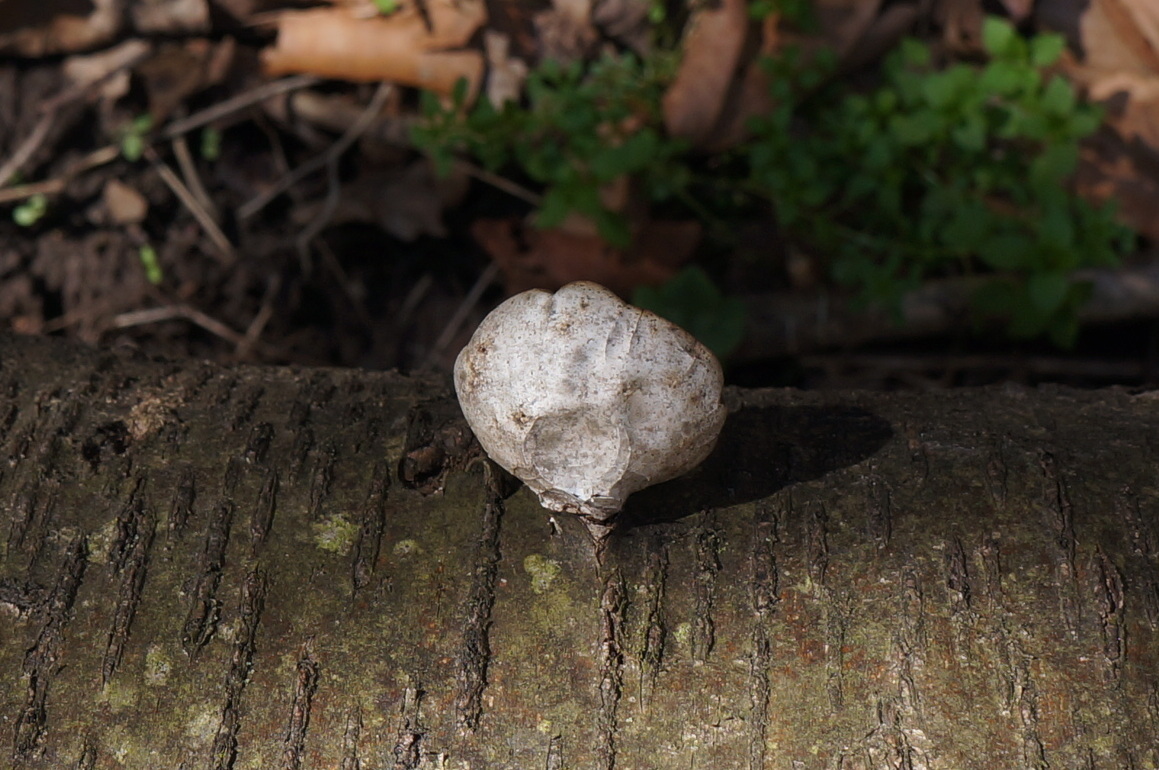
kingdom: Fungi
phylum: Basidiomycota
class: Agaricomycetes
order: Polyporales
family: Fomitopsidaceae
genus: Fomitopsis
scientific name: Fomitopsis betulina
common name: Birch polypore
